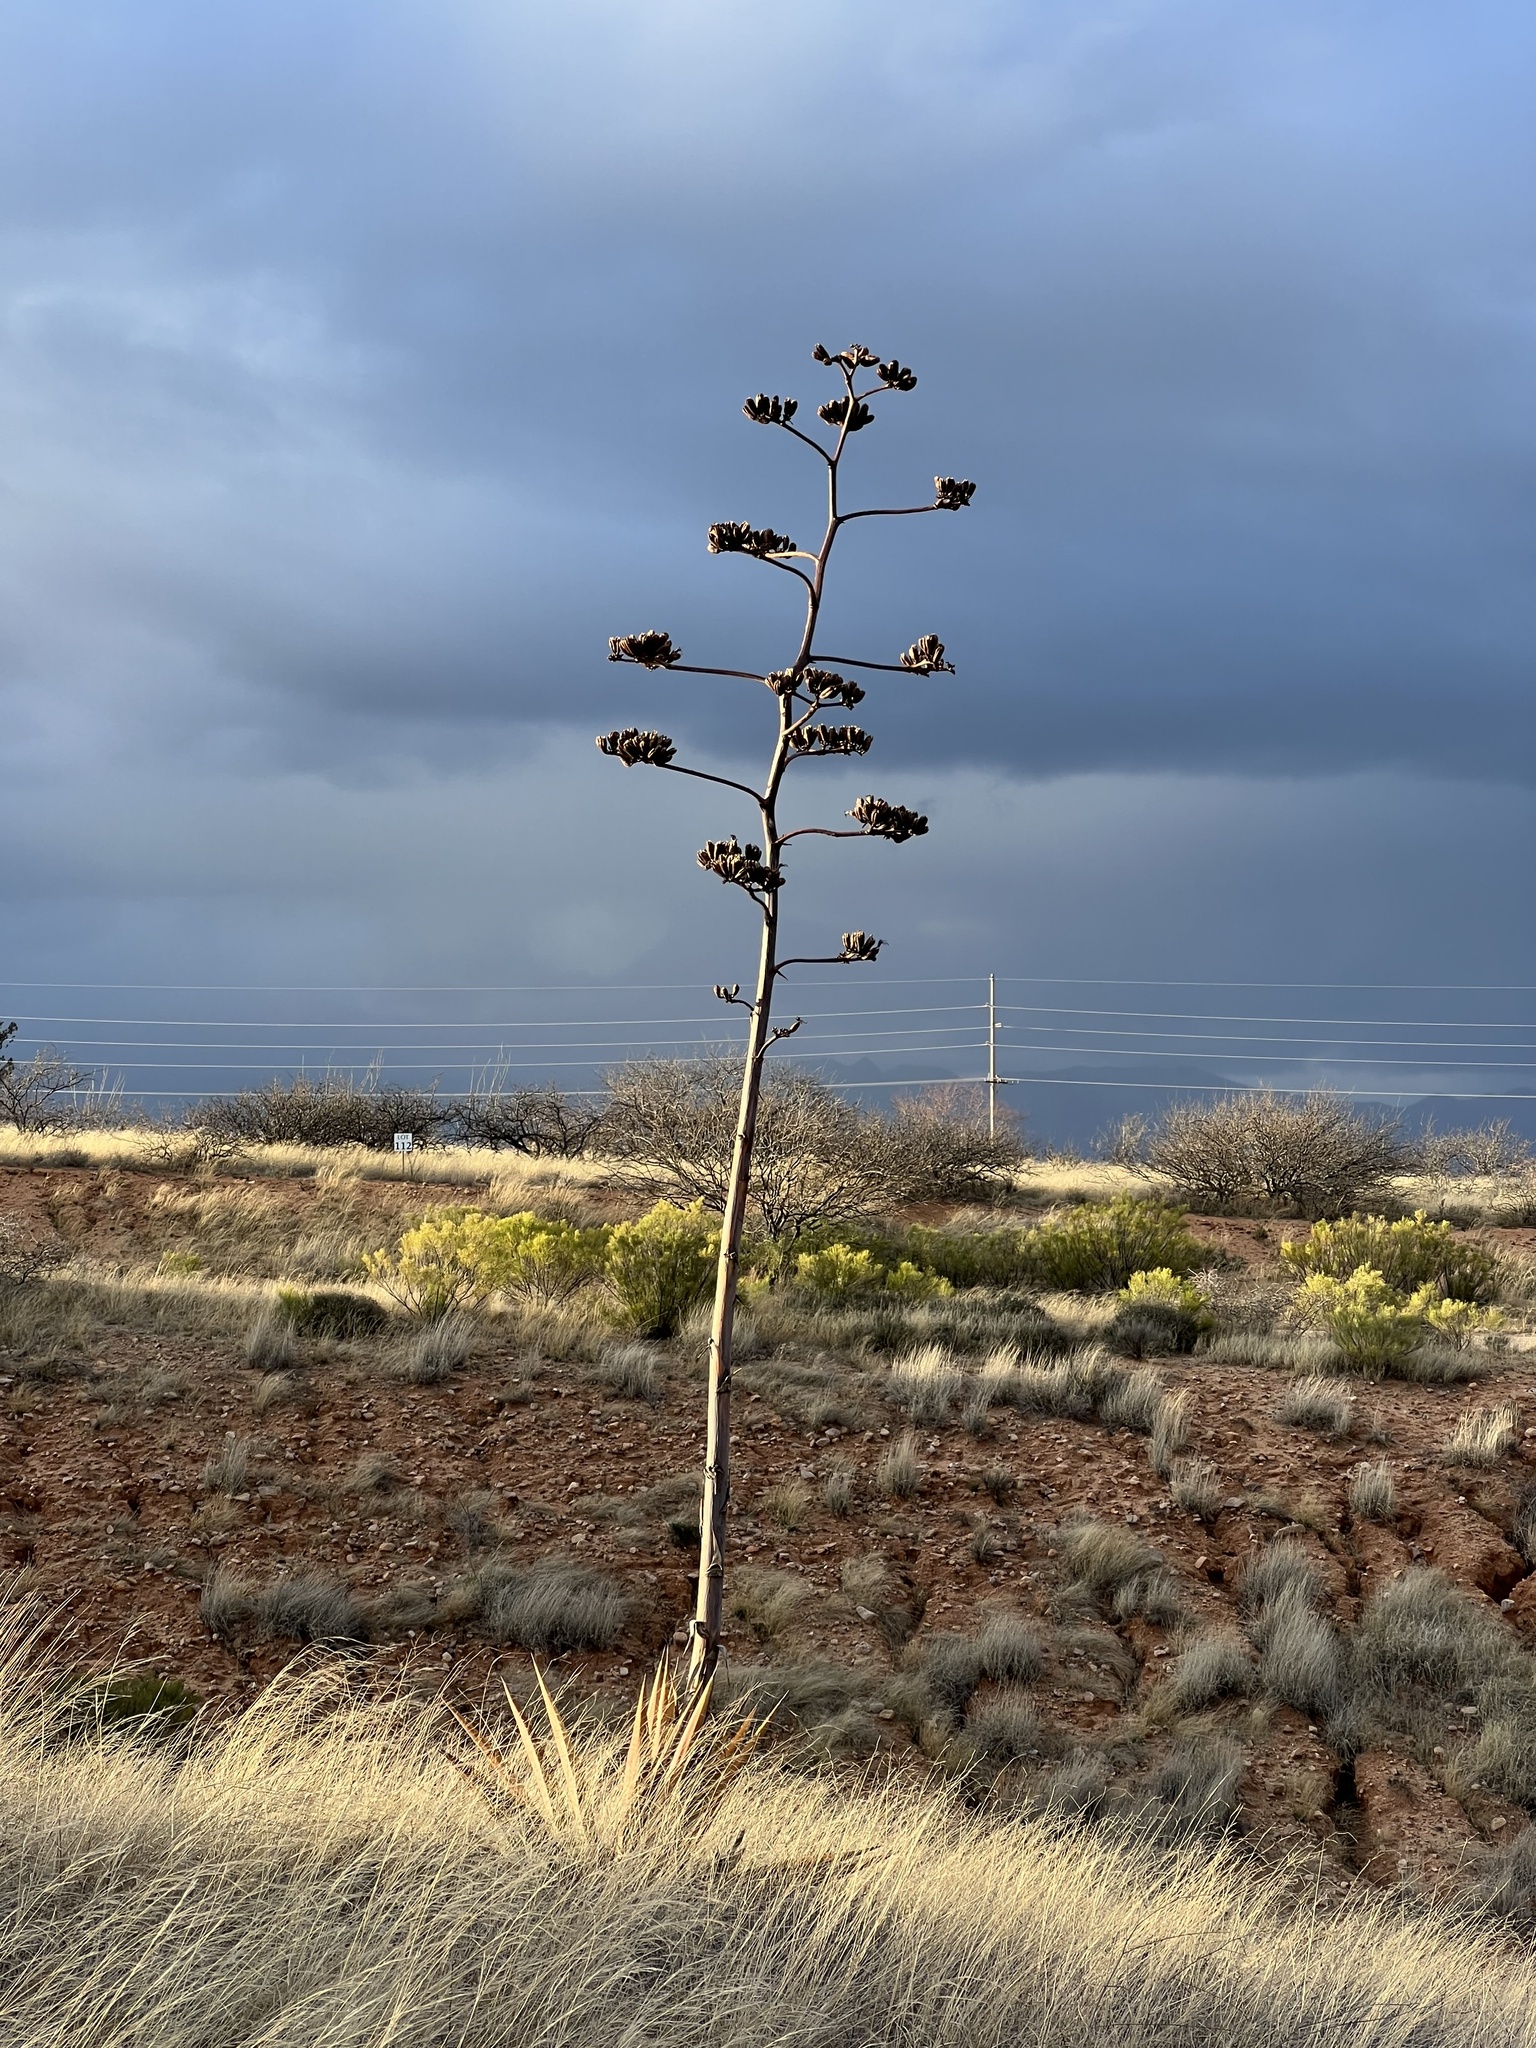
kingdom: Plantae
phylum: Tracheophyta
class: Liliopsida
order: Asparagales
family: Asparagaceae
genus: Agave
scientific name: Agave palmeri
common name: Palmer agave
